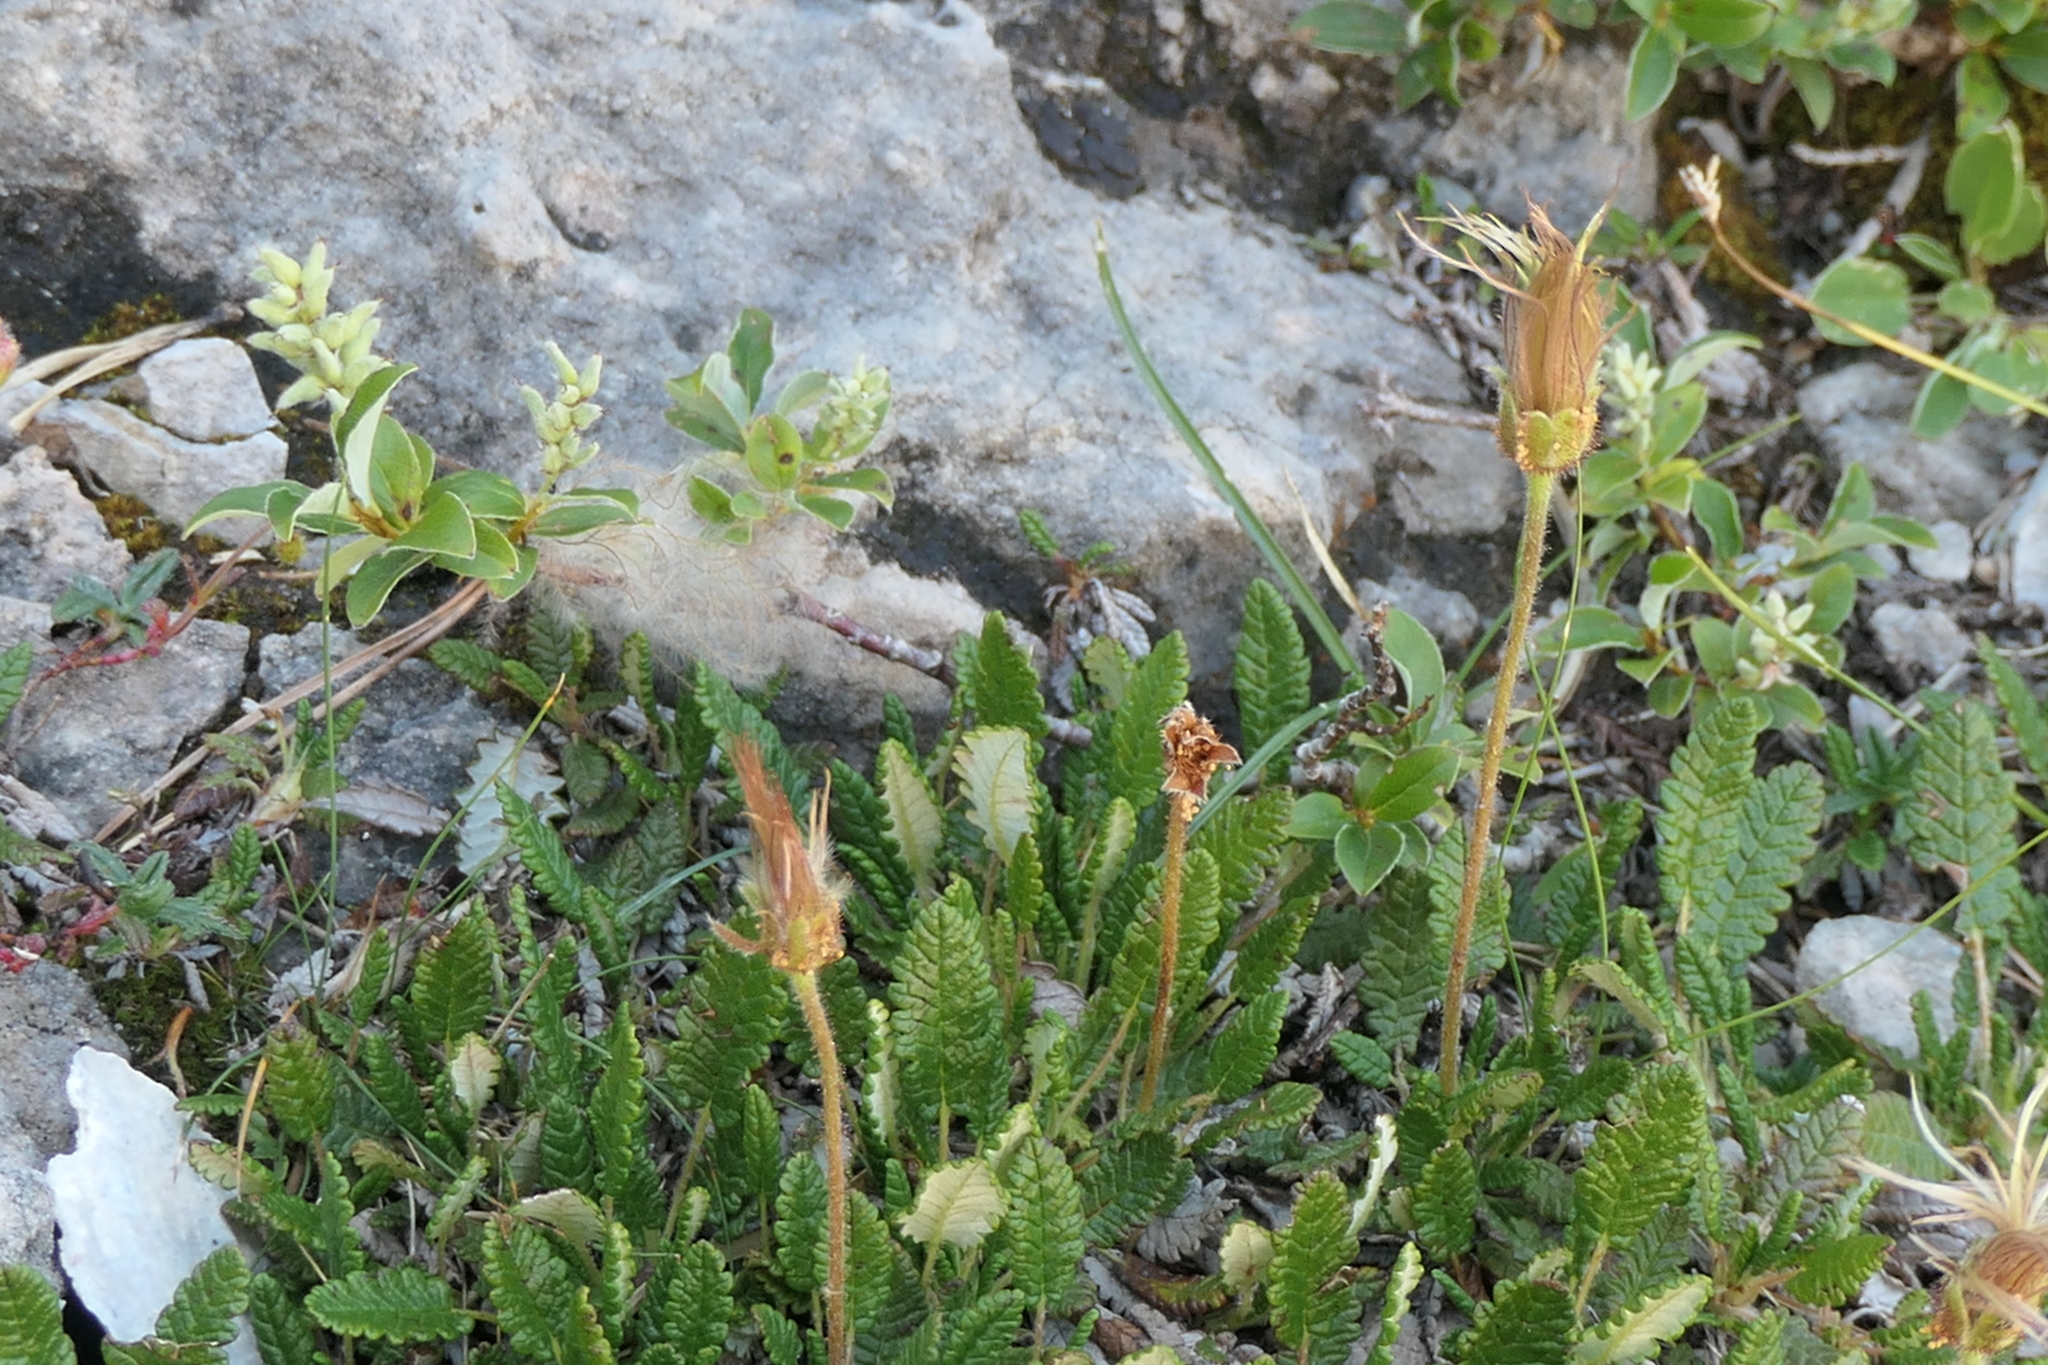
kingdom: Plantae
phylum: Tracheophyta
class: Magnoliopsida
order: Rosales
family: Rosaceae
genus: Dryas
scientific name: Dryas octopetala
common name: Eight-petal mountain-avens
